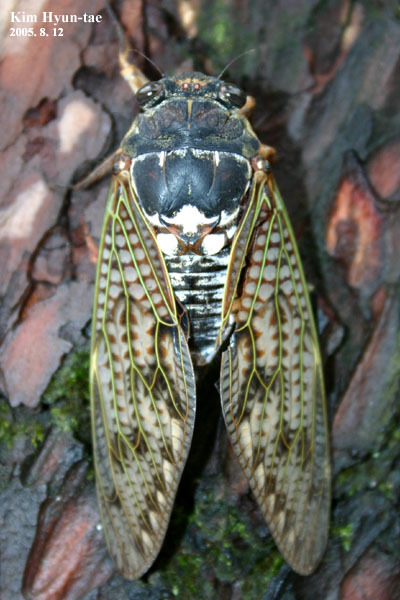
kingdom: Animalia
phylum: Arthropoda
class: Insecta
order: Hemiptera
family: Cicadidae
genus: Graptopsaltria
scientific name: Graptopsaltria nigrofuscata
